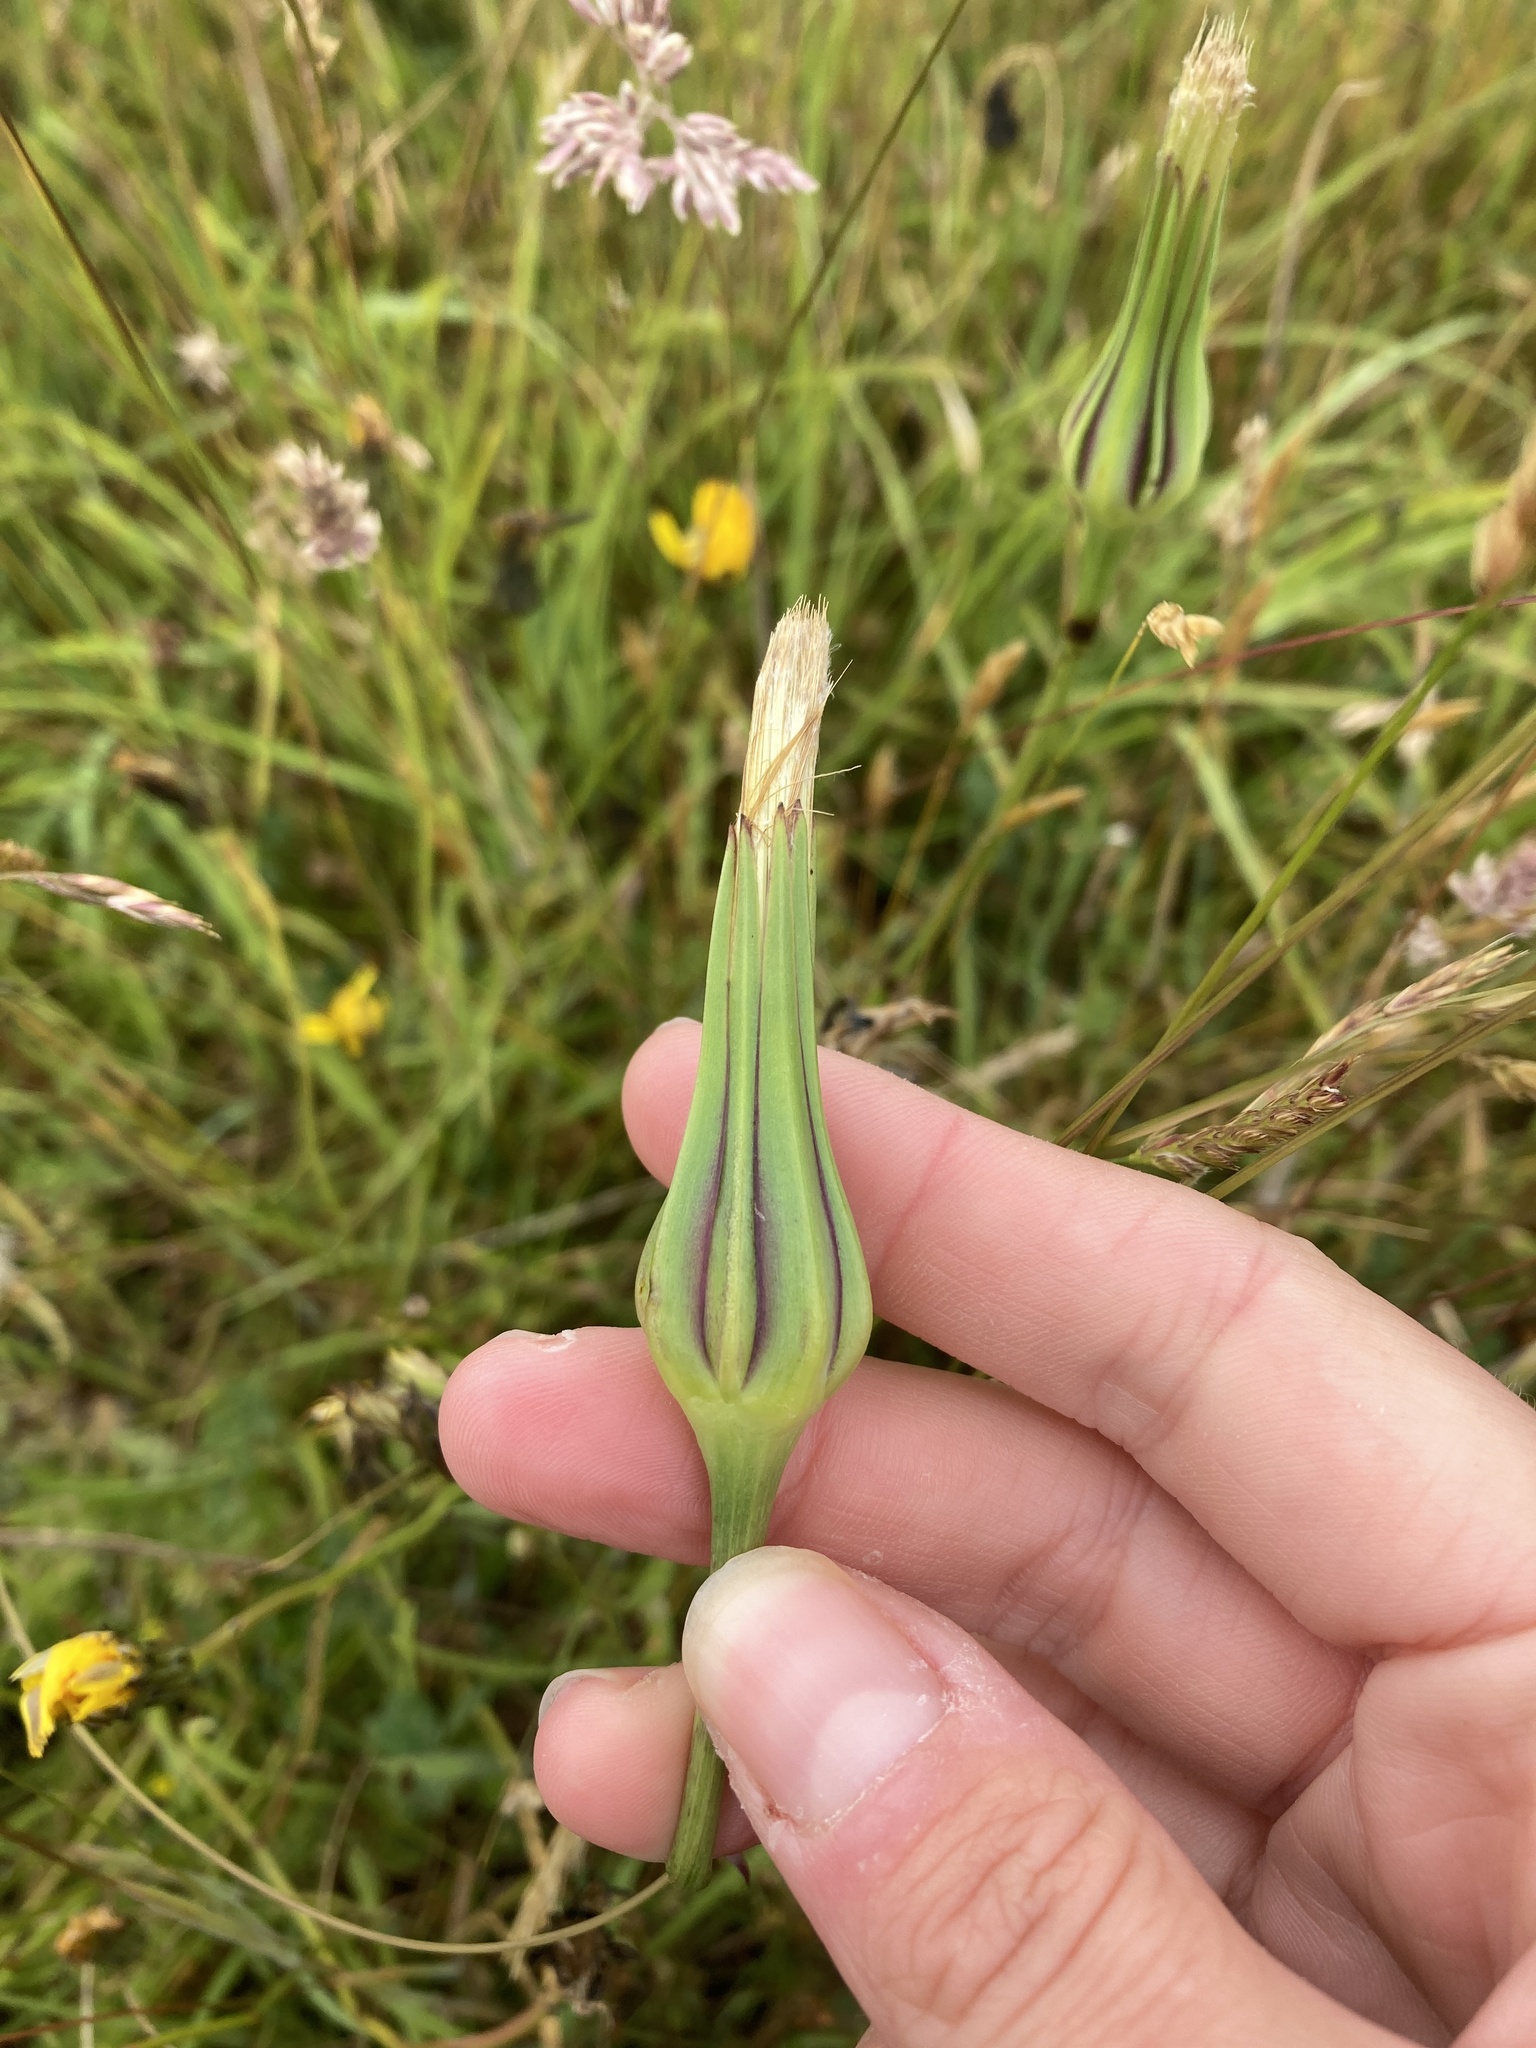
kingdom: Plantae
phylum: Tracheophyta
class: Magnoliopsida
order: Asterales
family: Asteraceae
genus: Tragopogon
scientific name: Tragopogon pratensis
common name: Goat's-beard
